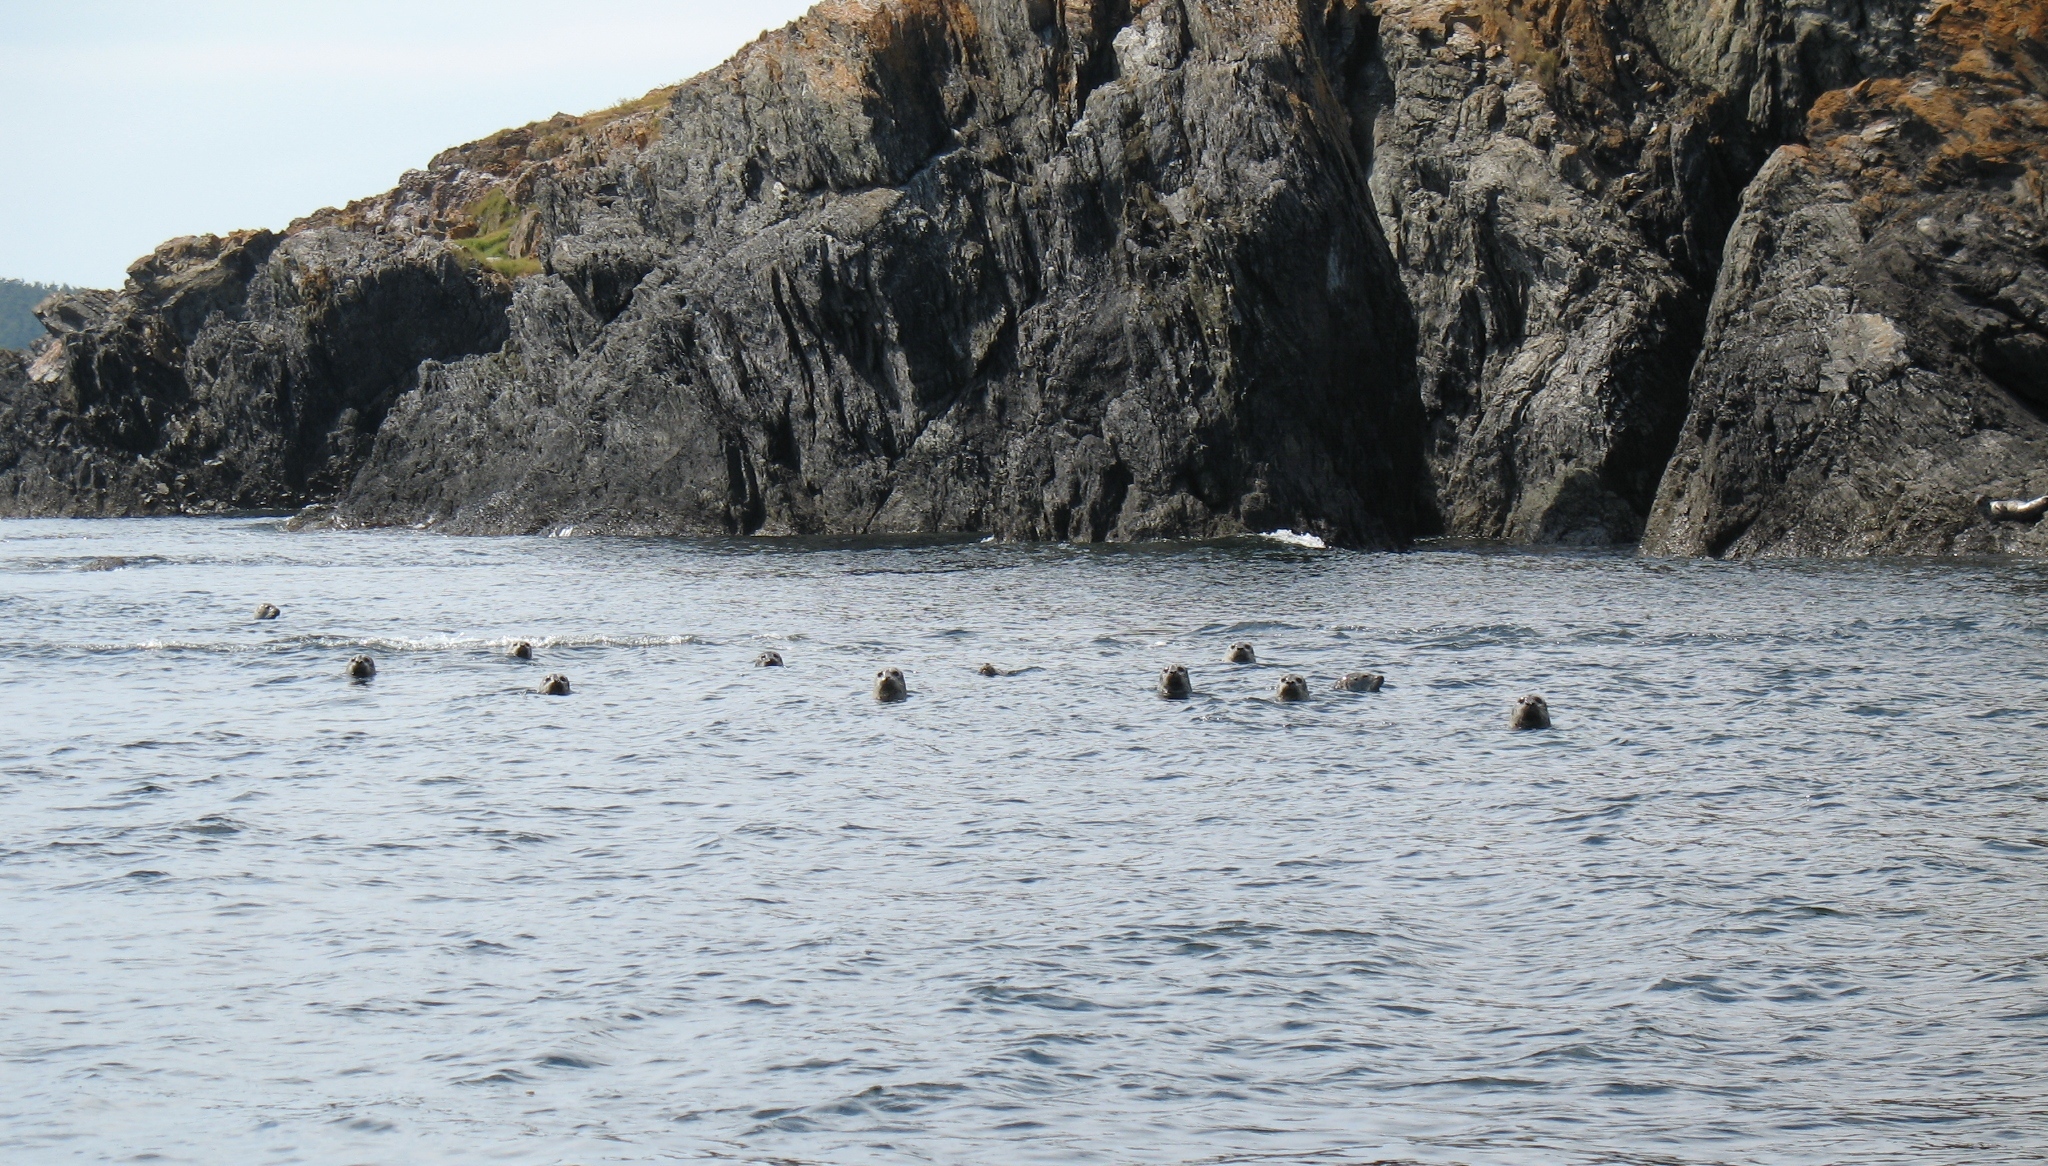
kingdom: Animalia
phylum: Chordata
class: Mammalia
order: Carnivora
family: Phocidae
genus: Phoca
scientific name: Phoca vitulina
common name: Harbor seal
